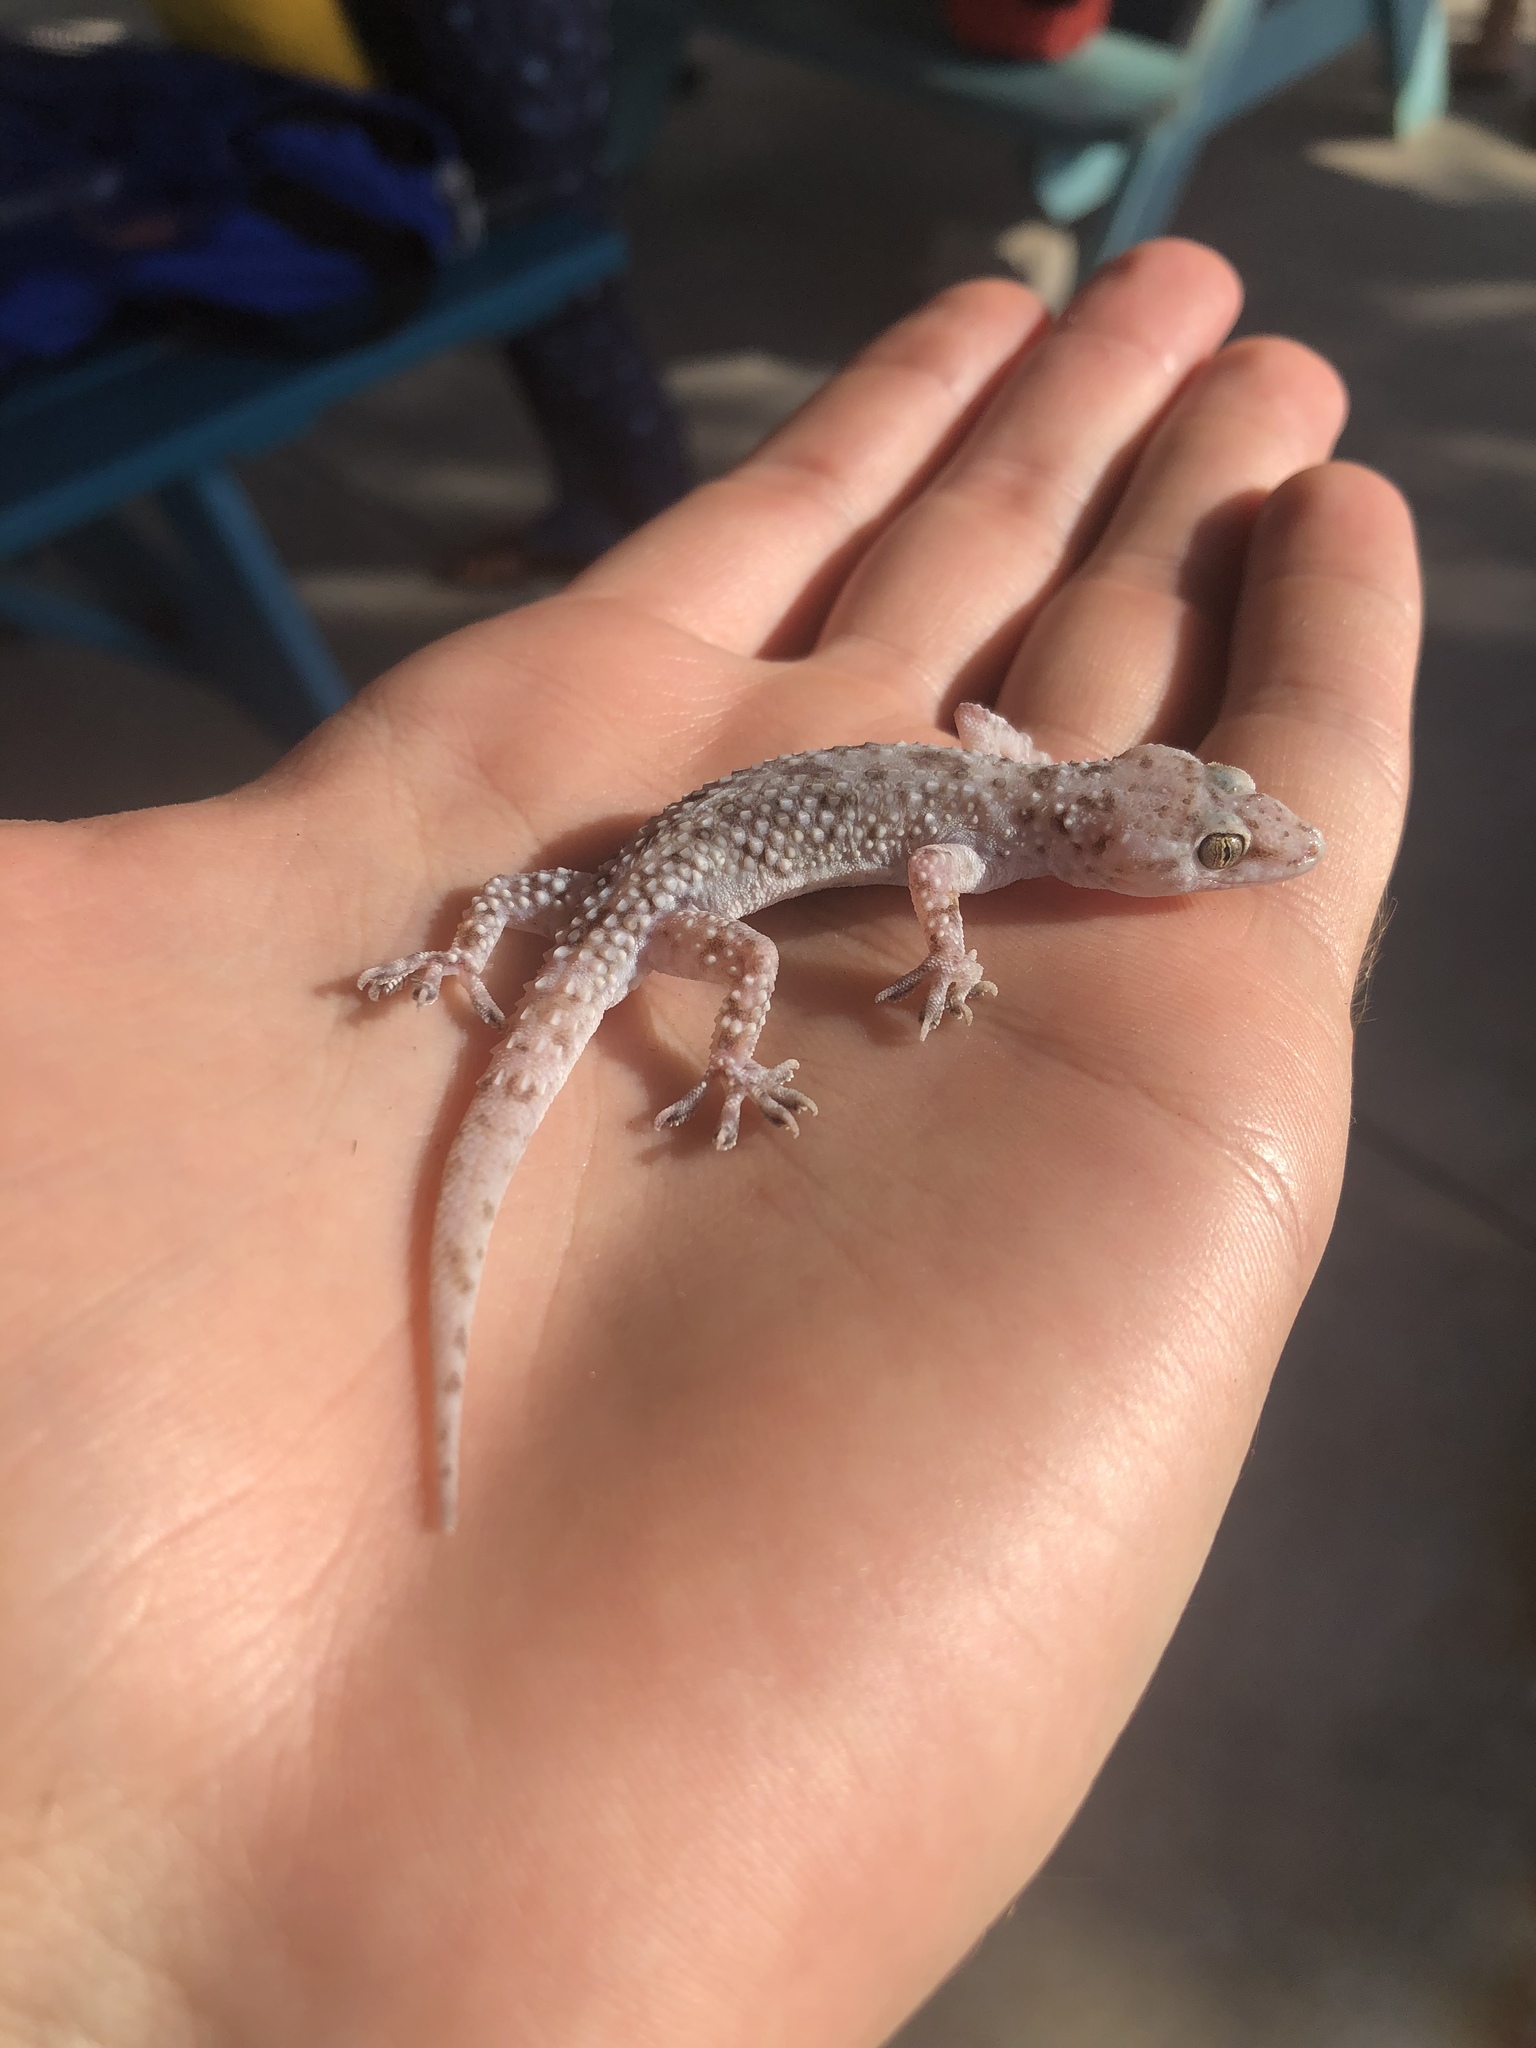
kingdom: Animalia
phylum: Chordata
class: Squamata
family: Gekkonidae
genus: Hemidactylus
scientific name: Hemidactylus turcicus
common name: Turkish gecko
